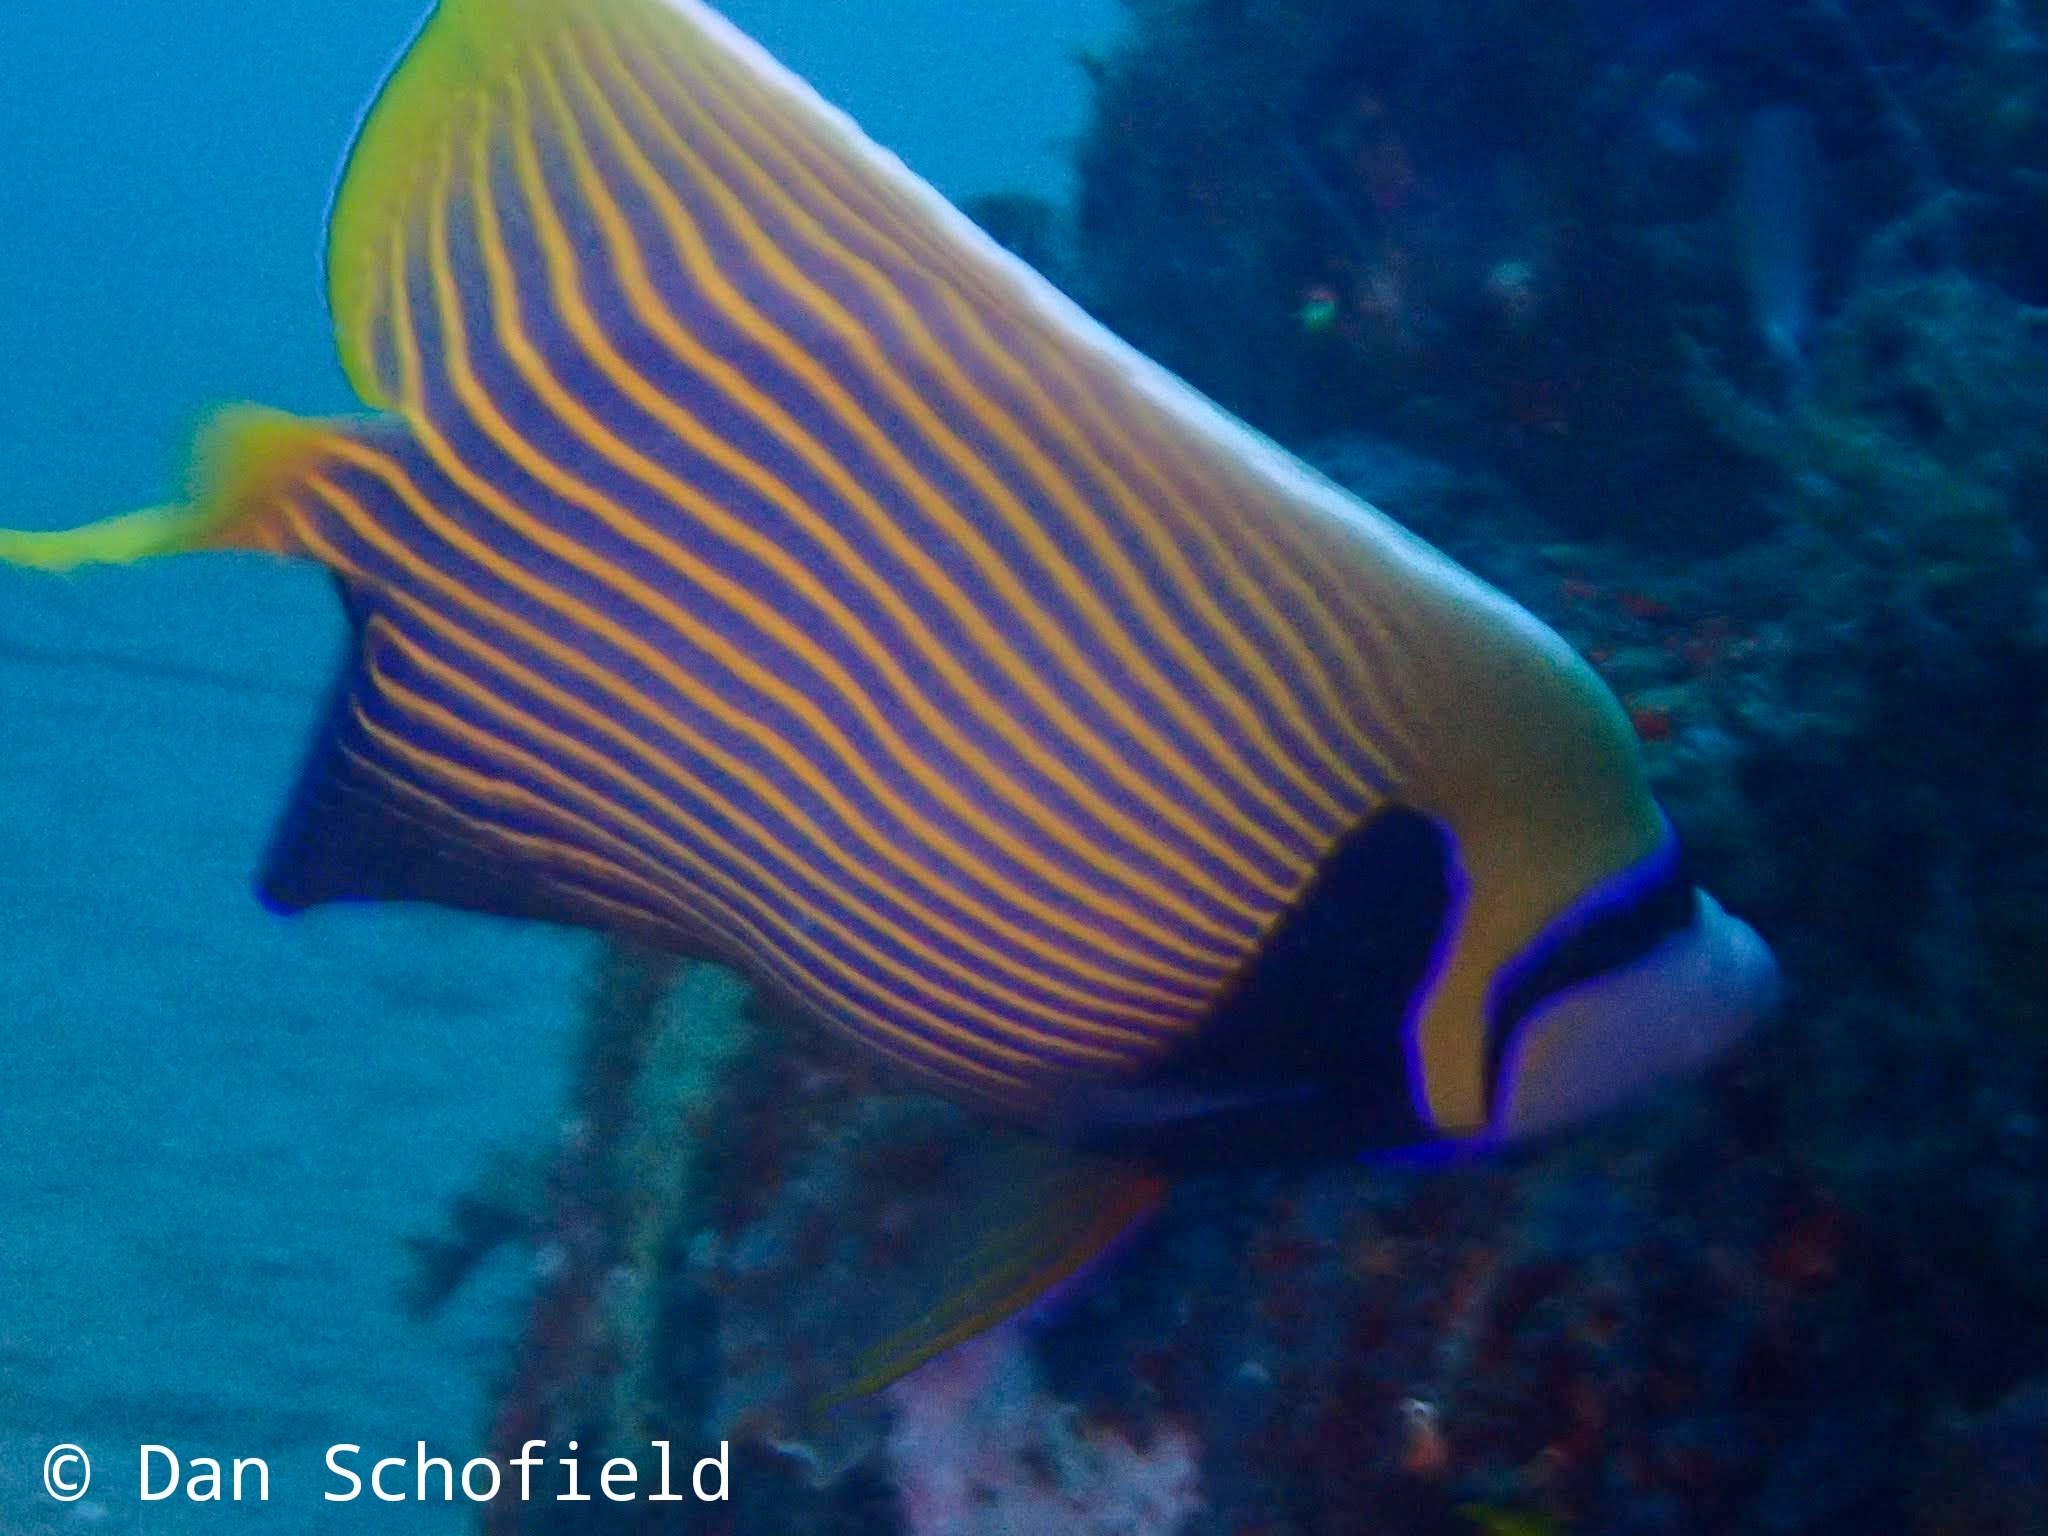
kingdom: Animalia
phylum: Chordata
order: Perciformes
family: Pomacanthidae
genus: Pomacanthus
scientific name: Pomacanthus imperator
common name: Emperor angelfish
